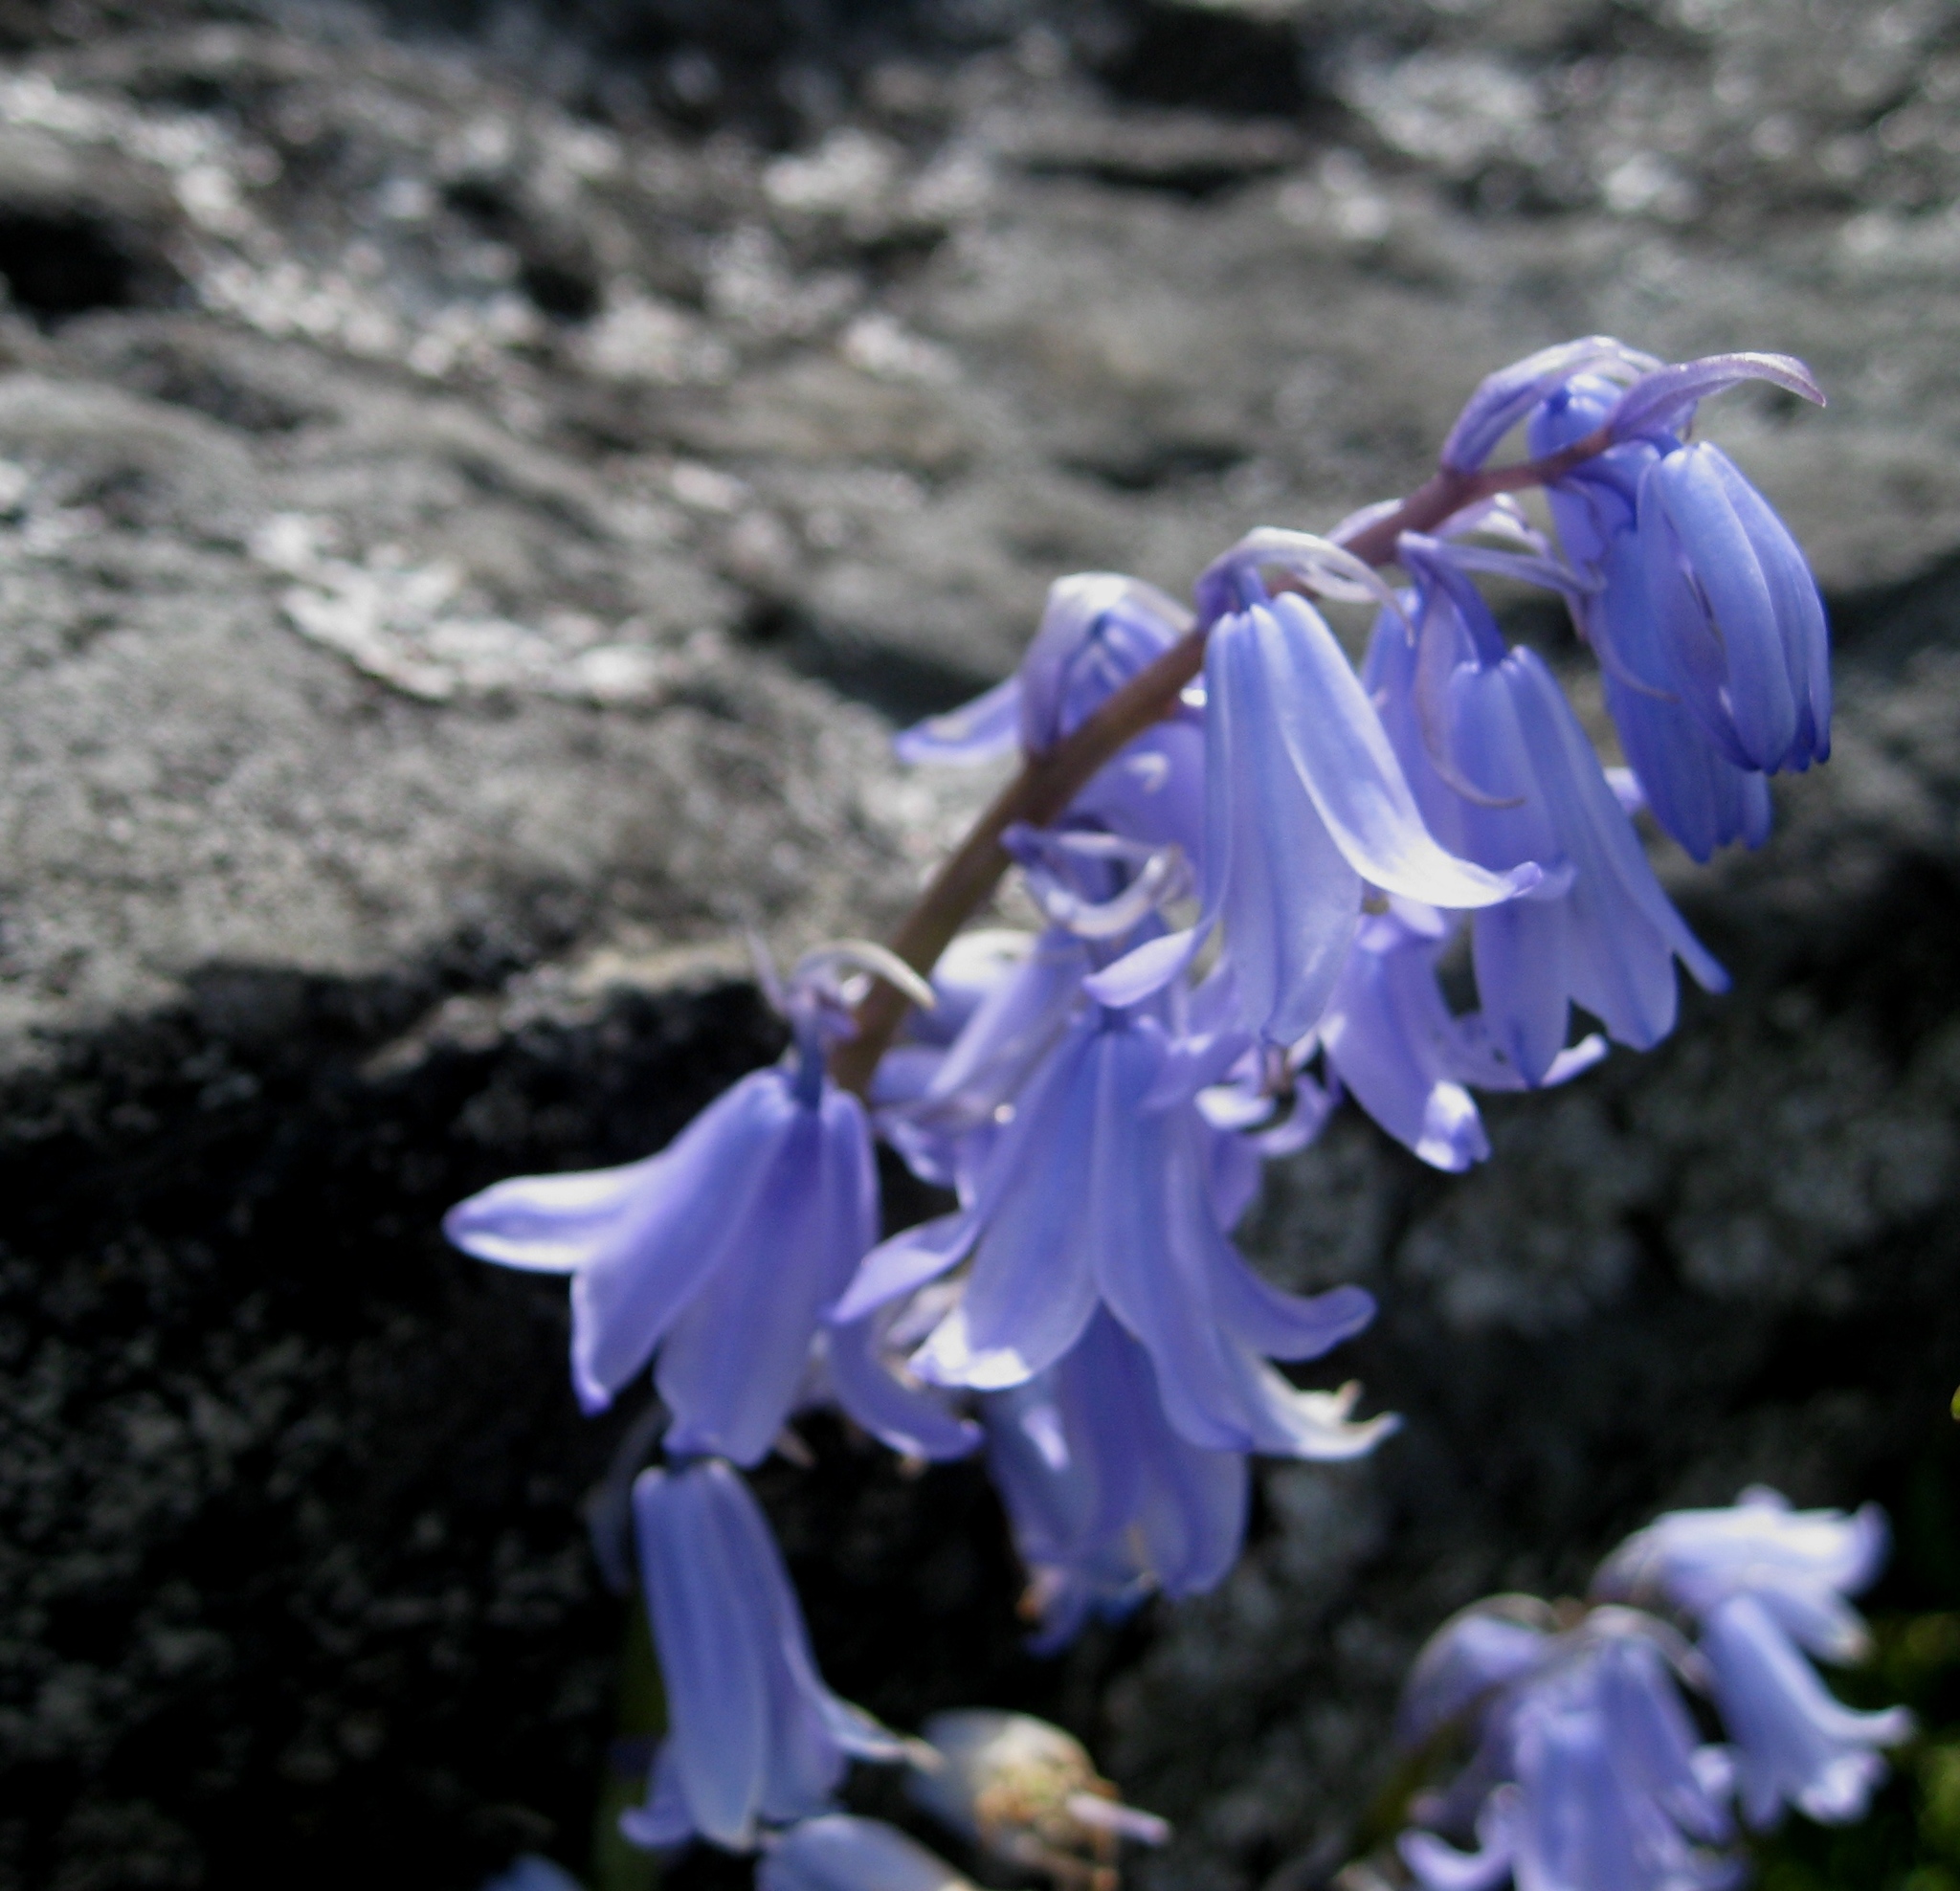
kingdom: Plantae
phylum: Tracheophyta
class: Liliopsida
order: Asparagales
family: Asparagaceae
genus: Hyacinthoides
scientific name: Hyacinthoides hispanica
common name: Spanish bluebell
